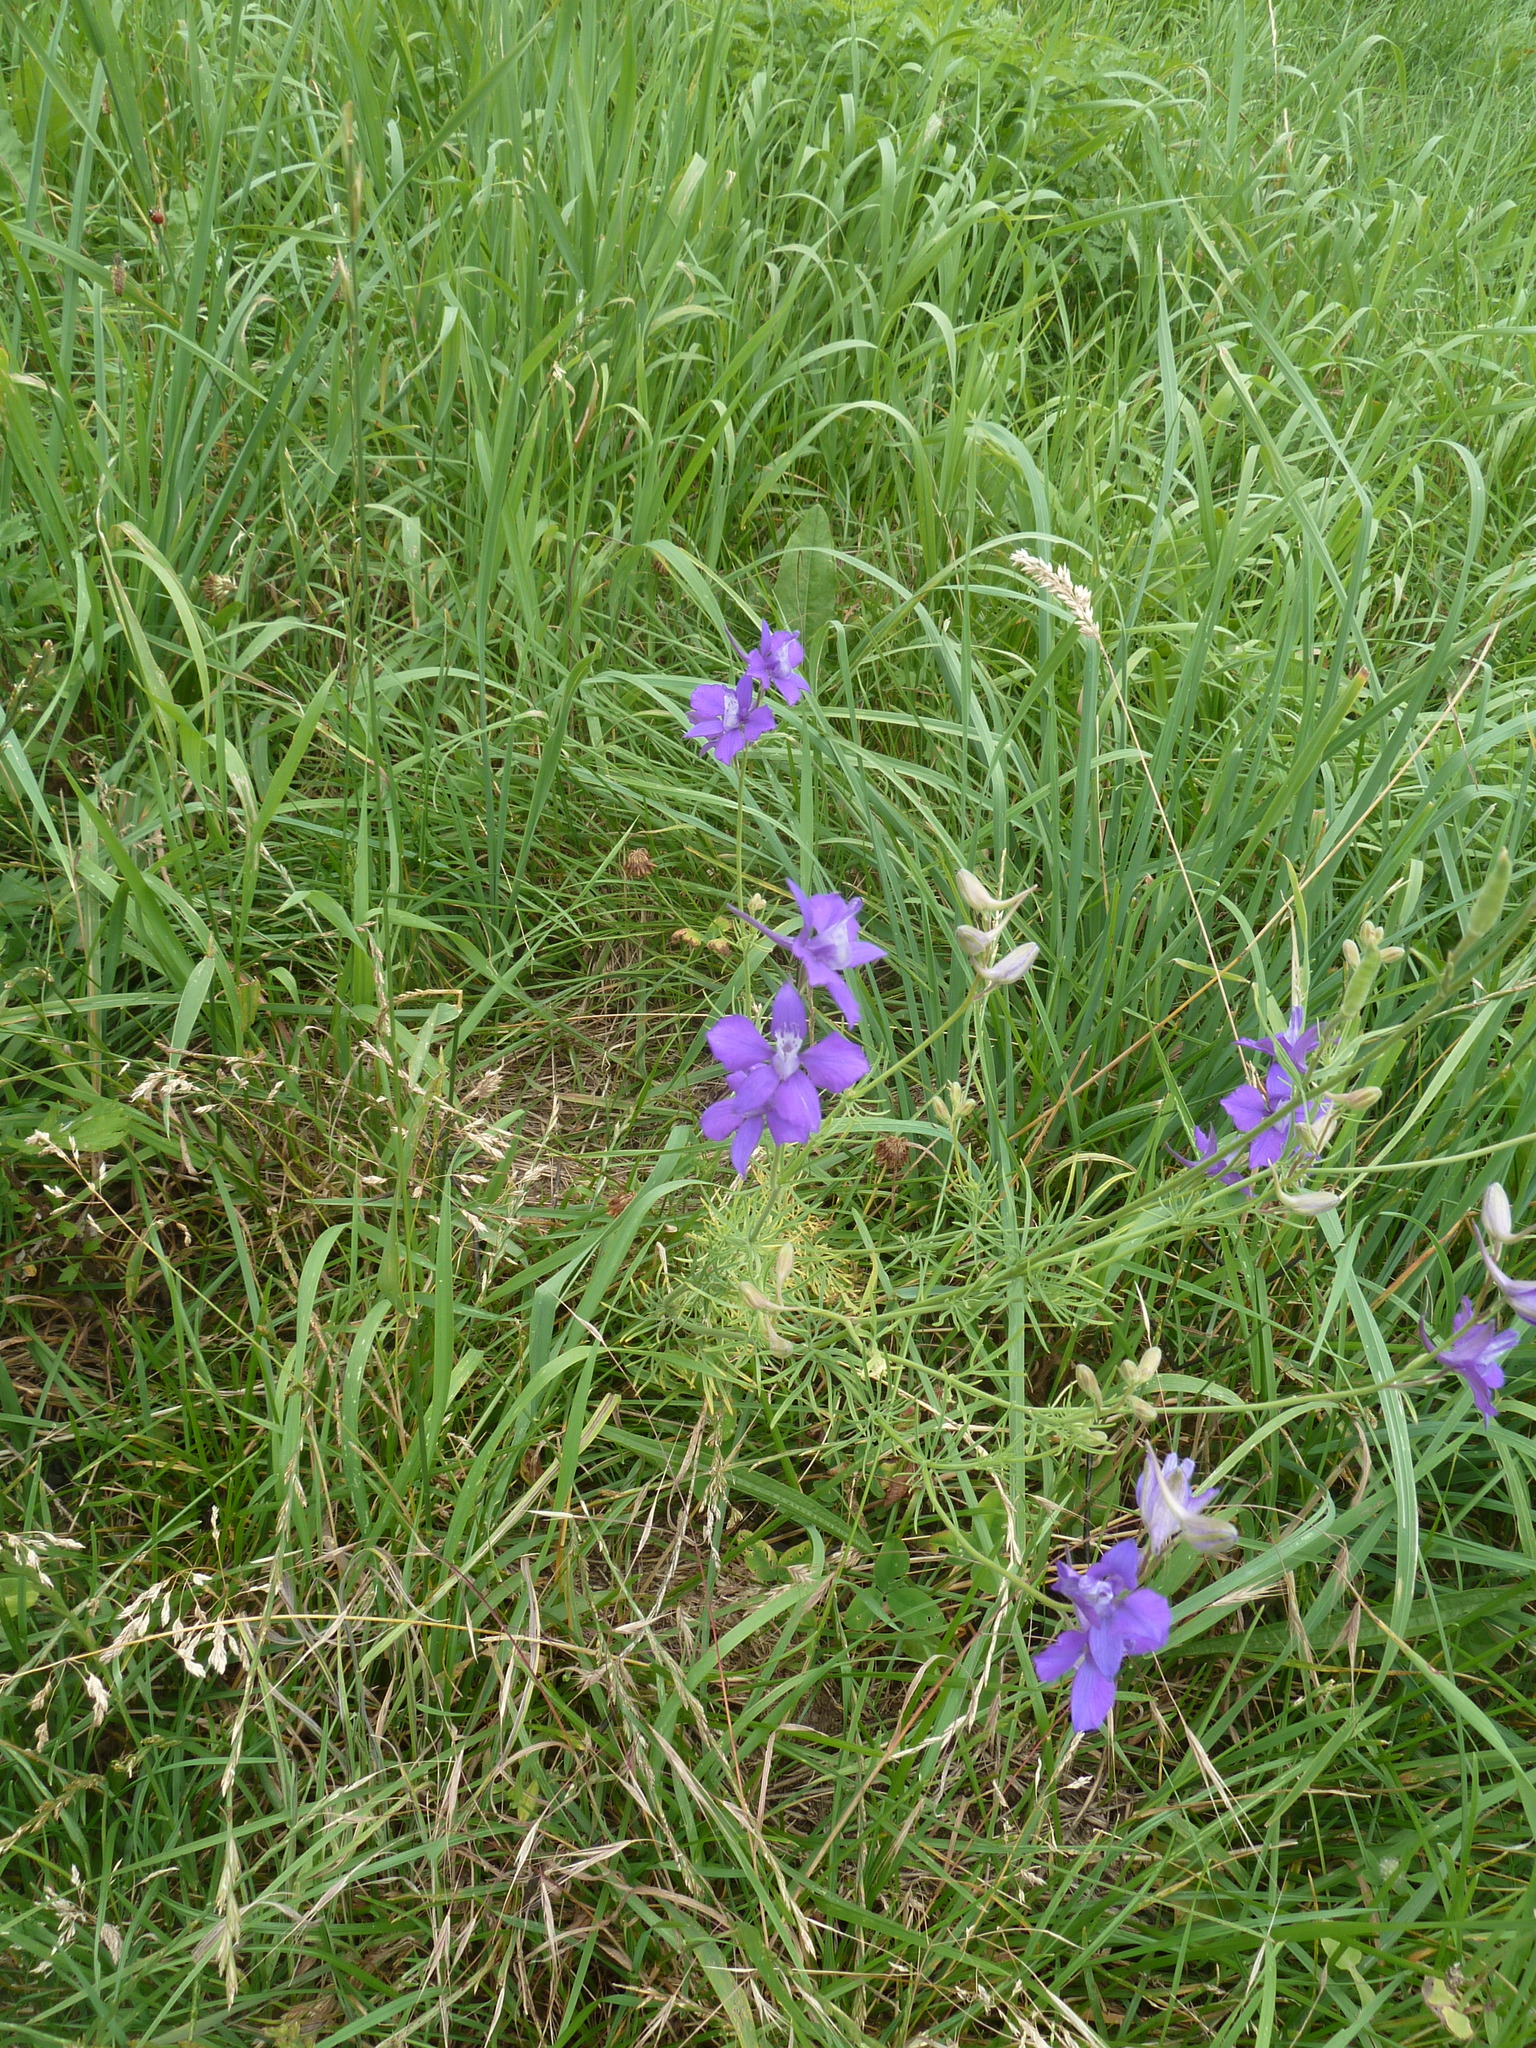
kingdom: Plantae
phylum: Tracheophyta
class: Magnoliopsida
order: Ranunculales
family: Ranunculaceae
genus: Delphinium
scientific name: Delphinium consolida
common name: Branching larkspur
